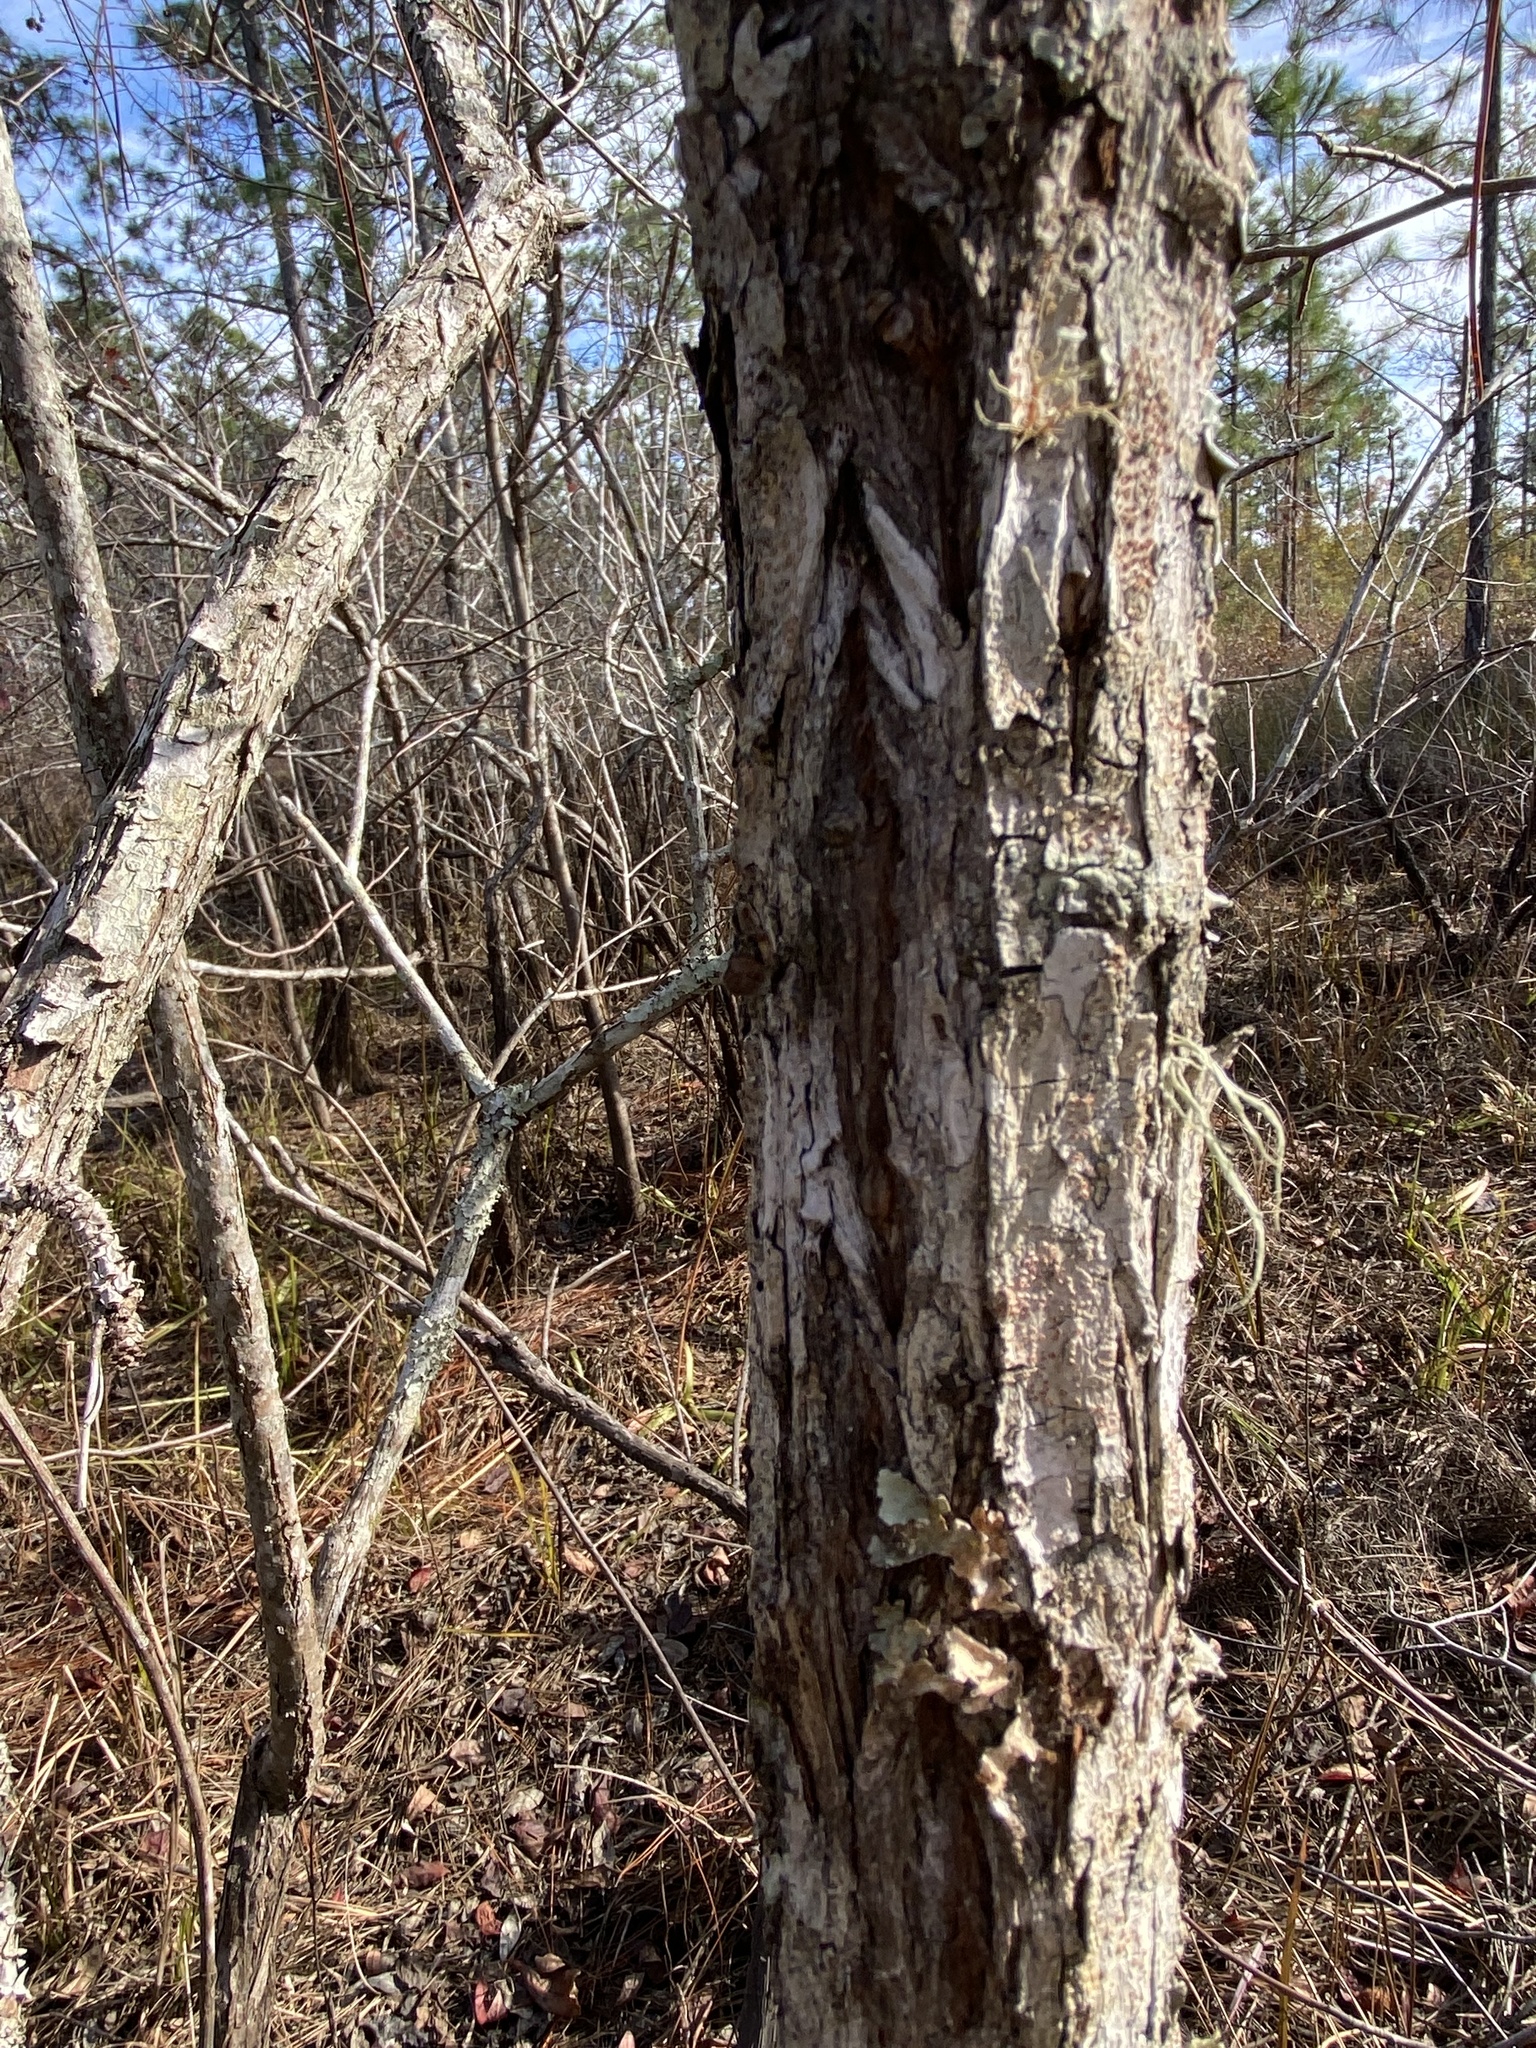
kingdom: Plantae
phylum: Tracheophyta
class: Magnoliopsida
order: Gentianales
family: Rubiaceae
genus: Cephalanthus
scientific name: Cephalanthus occidentalis
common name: Button-willow
